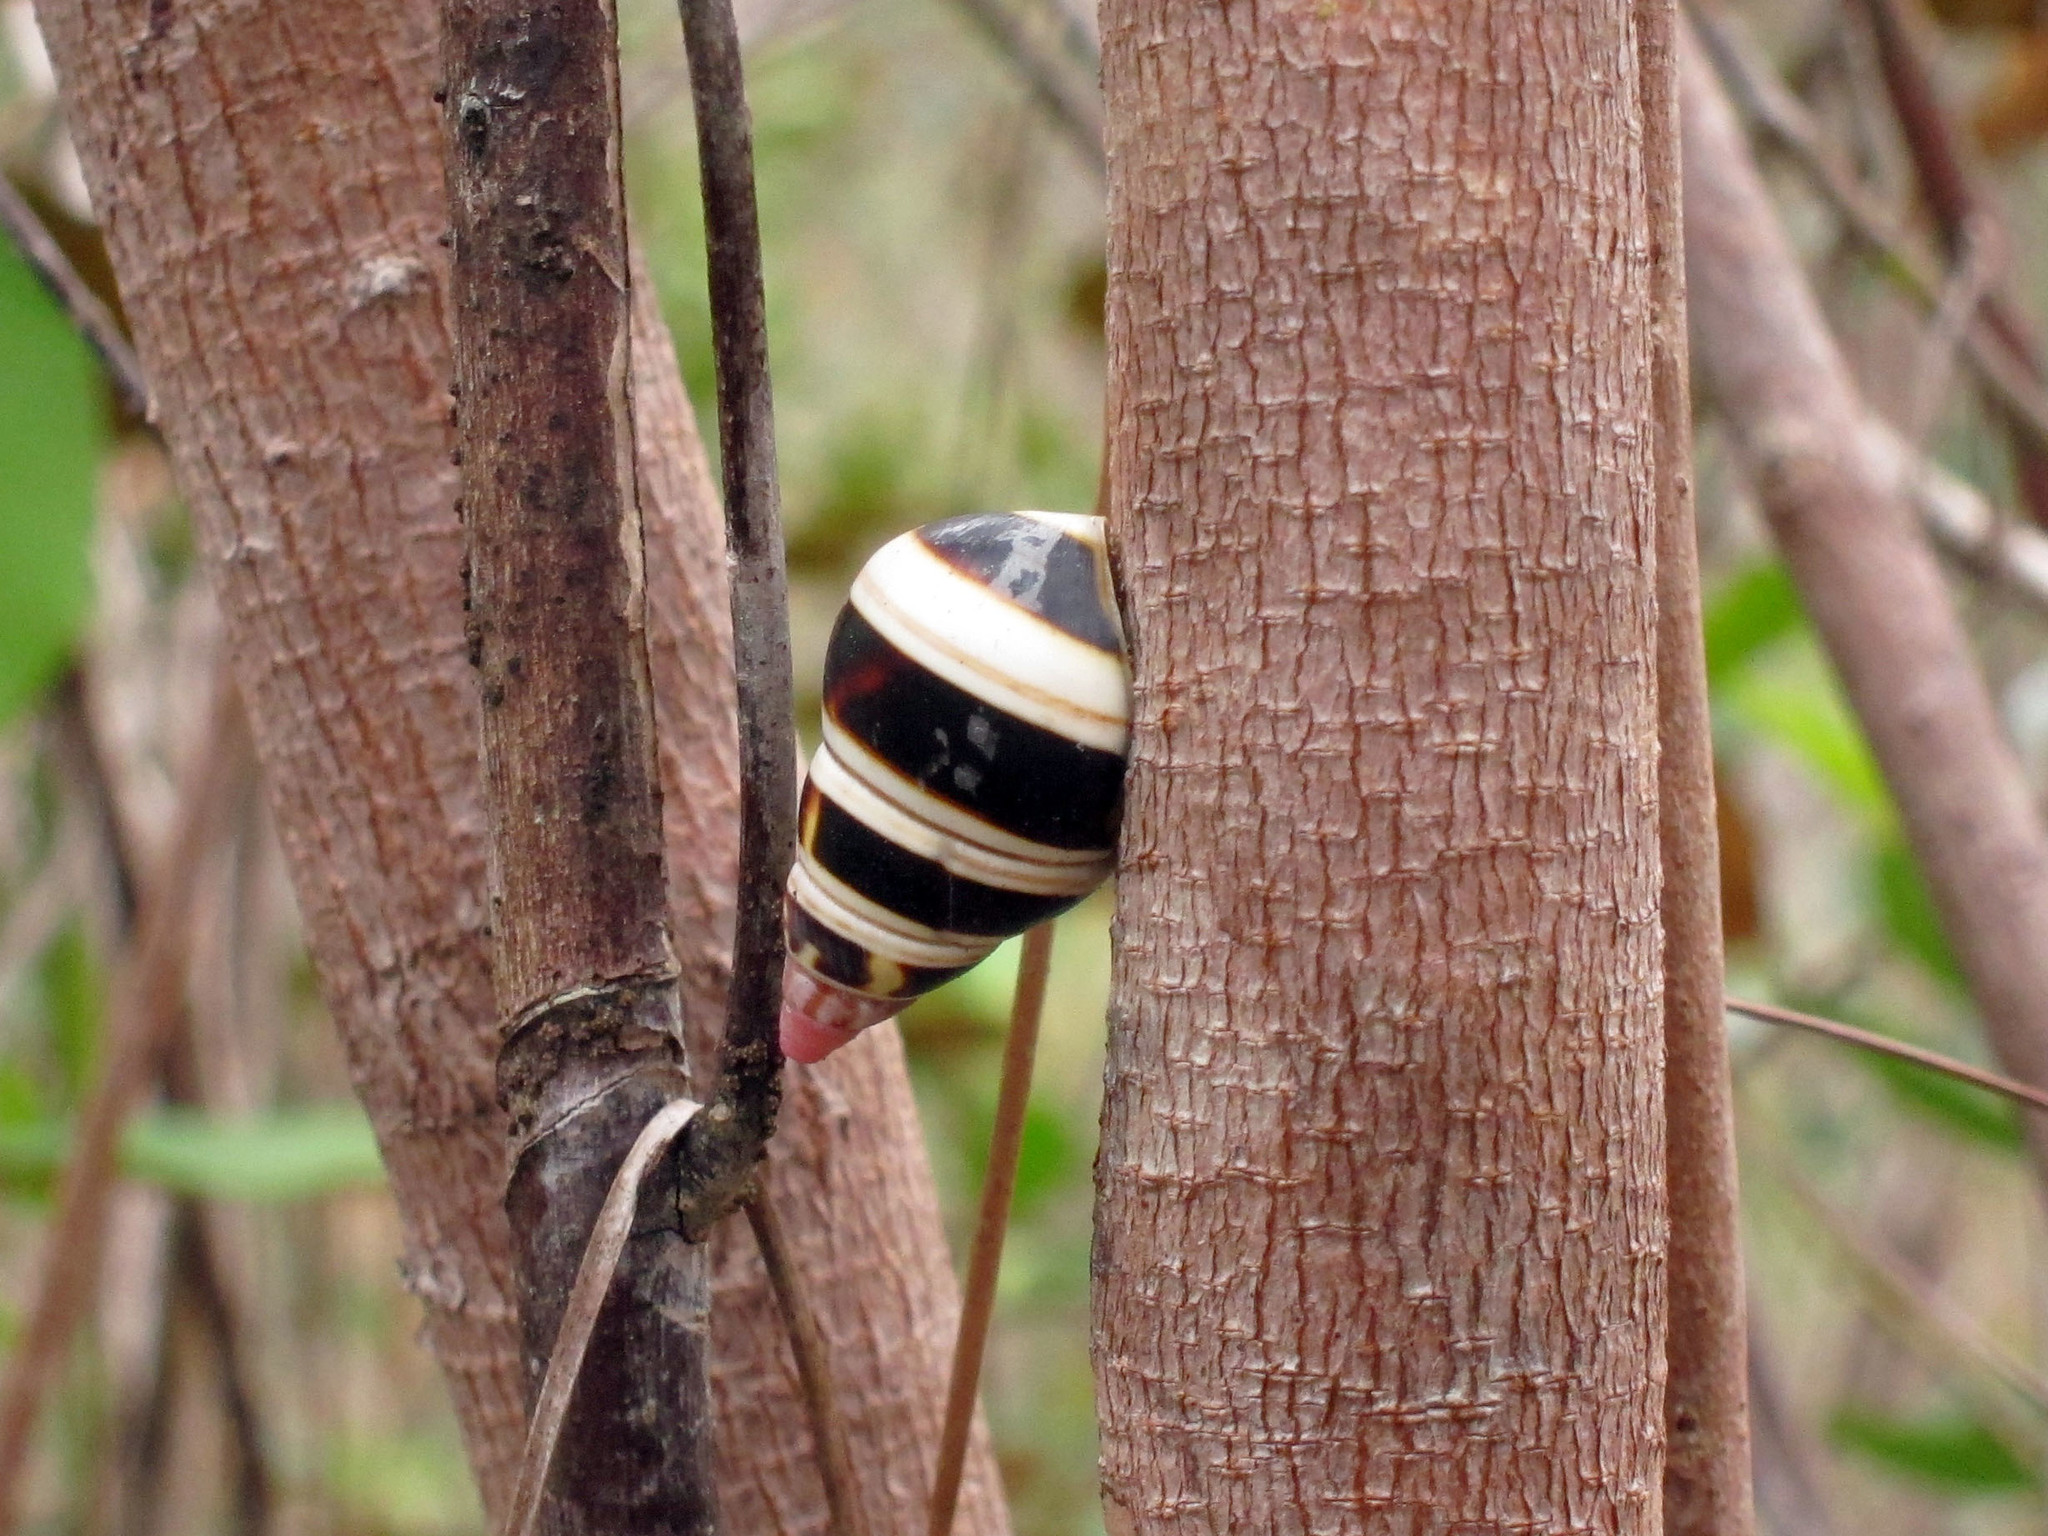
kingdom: Animalia
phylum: Mollusca
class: Gastropoda
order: Stylommatophora
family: Orthalicidae
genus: Liguus
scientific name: Liguus fasciatus
